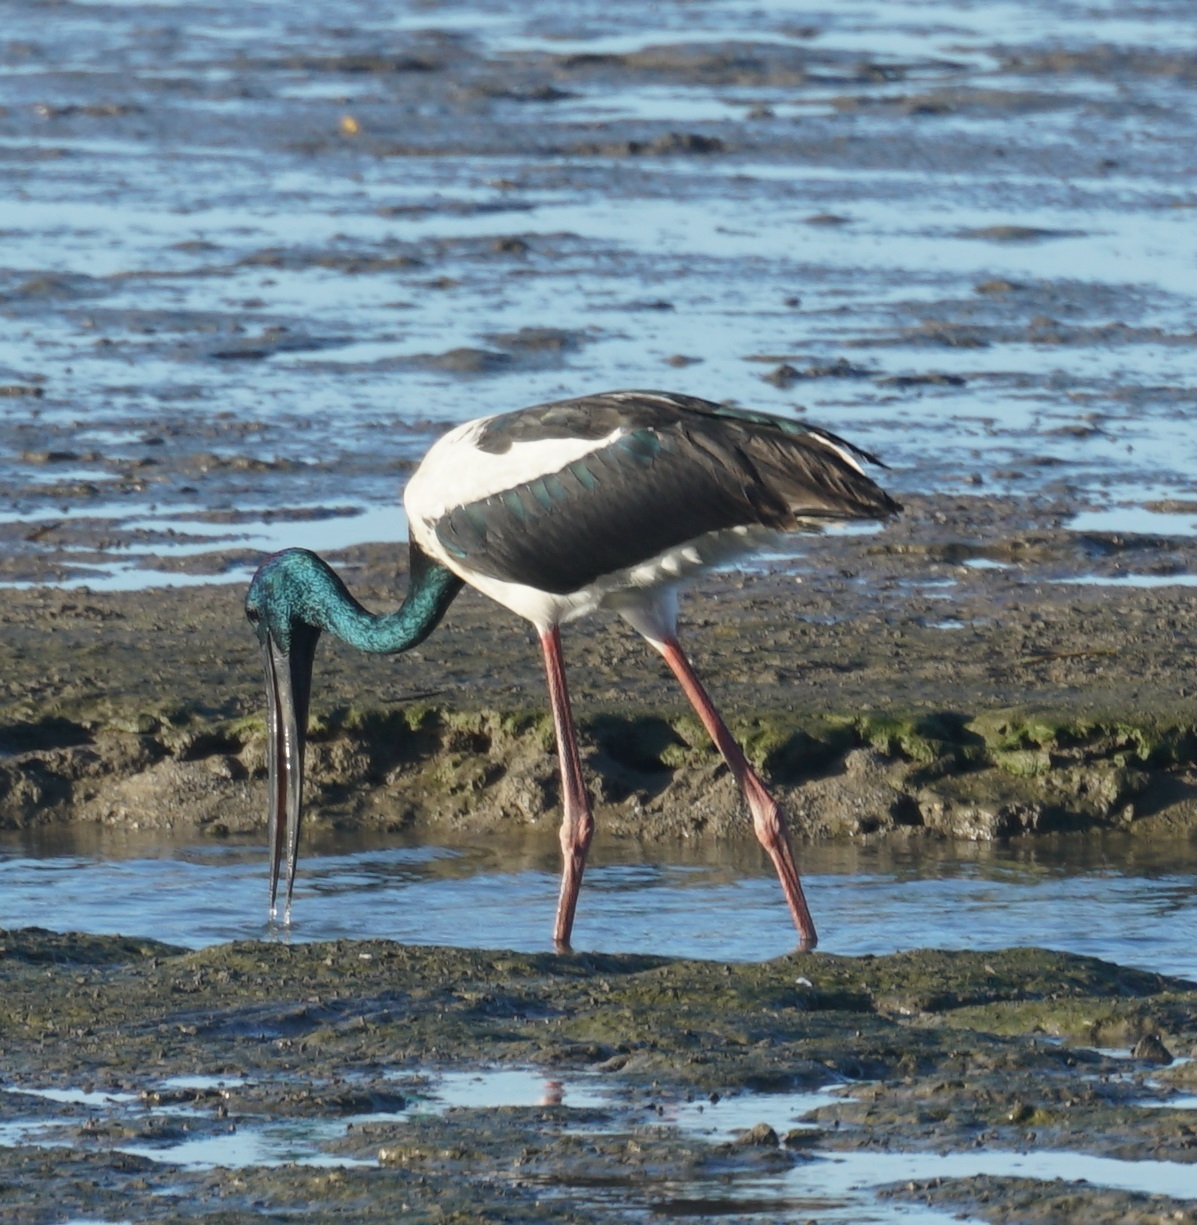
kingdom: Animalia
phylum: Chordata
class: Aves
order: Ciconiiformes
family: Ciconiidae
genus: Ephippiorhynchus
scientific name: Ephippiorhynchus asiaticus
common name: Black-necked stork
